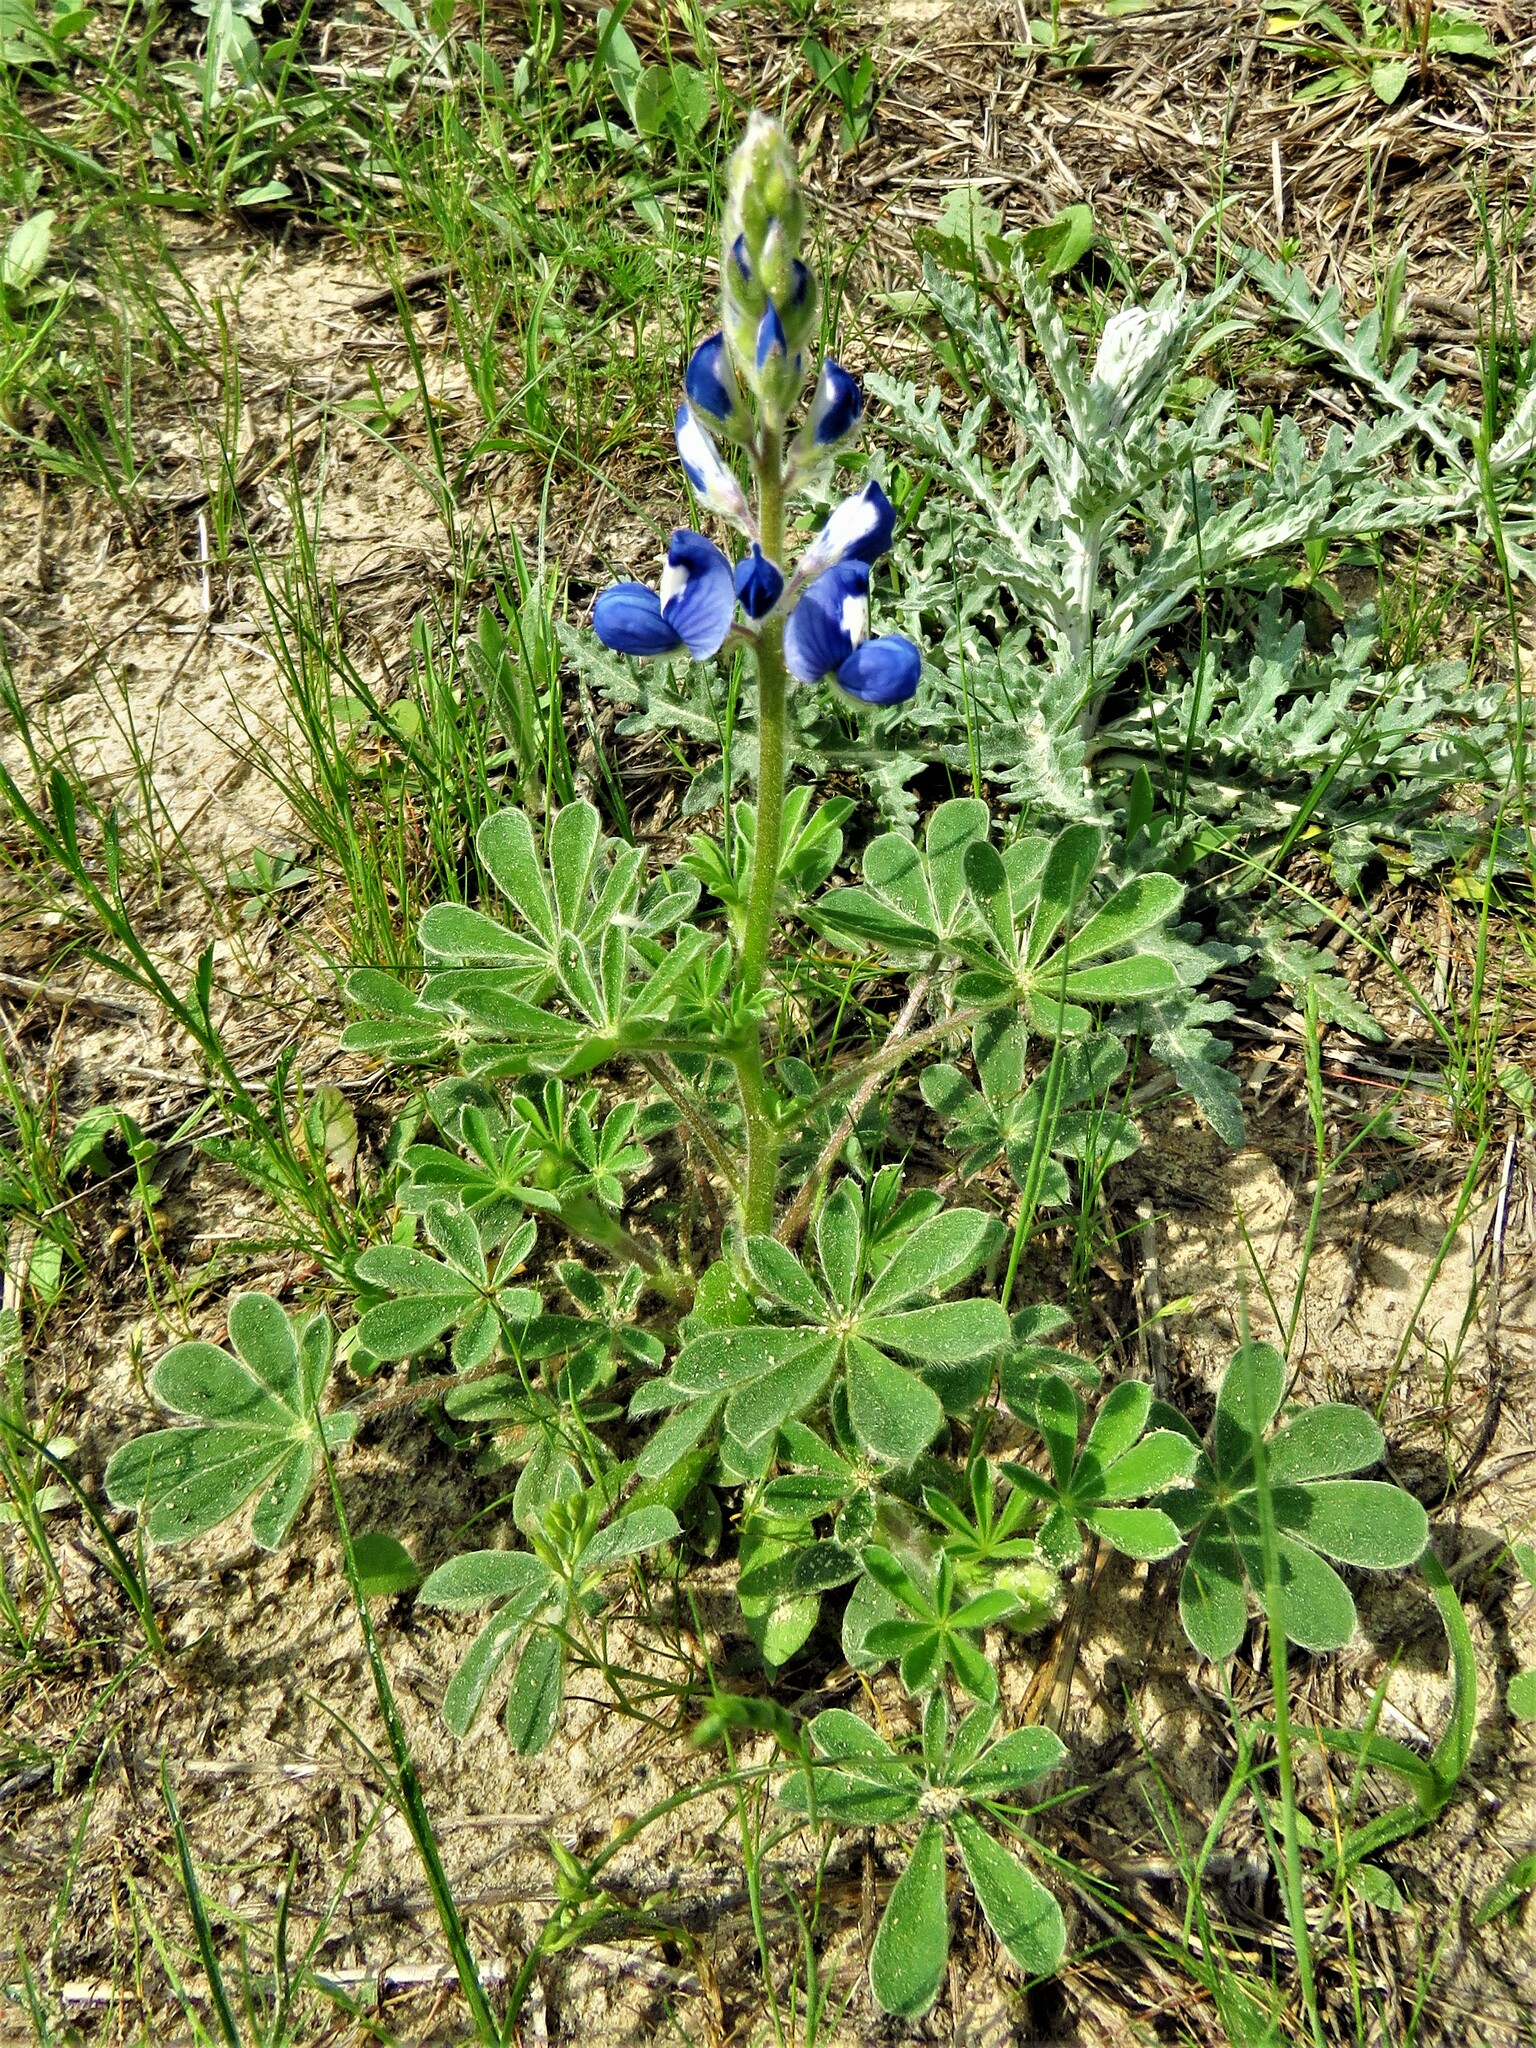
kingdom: Plantae
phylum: Tracheophyta
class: Magnoliopsida
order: Fabales
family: Fabaceae
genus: Lupinus
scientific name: Lupinus subcarnosus
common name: Texas bluebonnet
